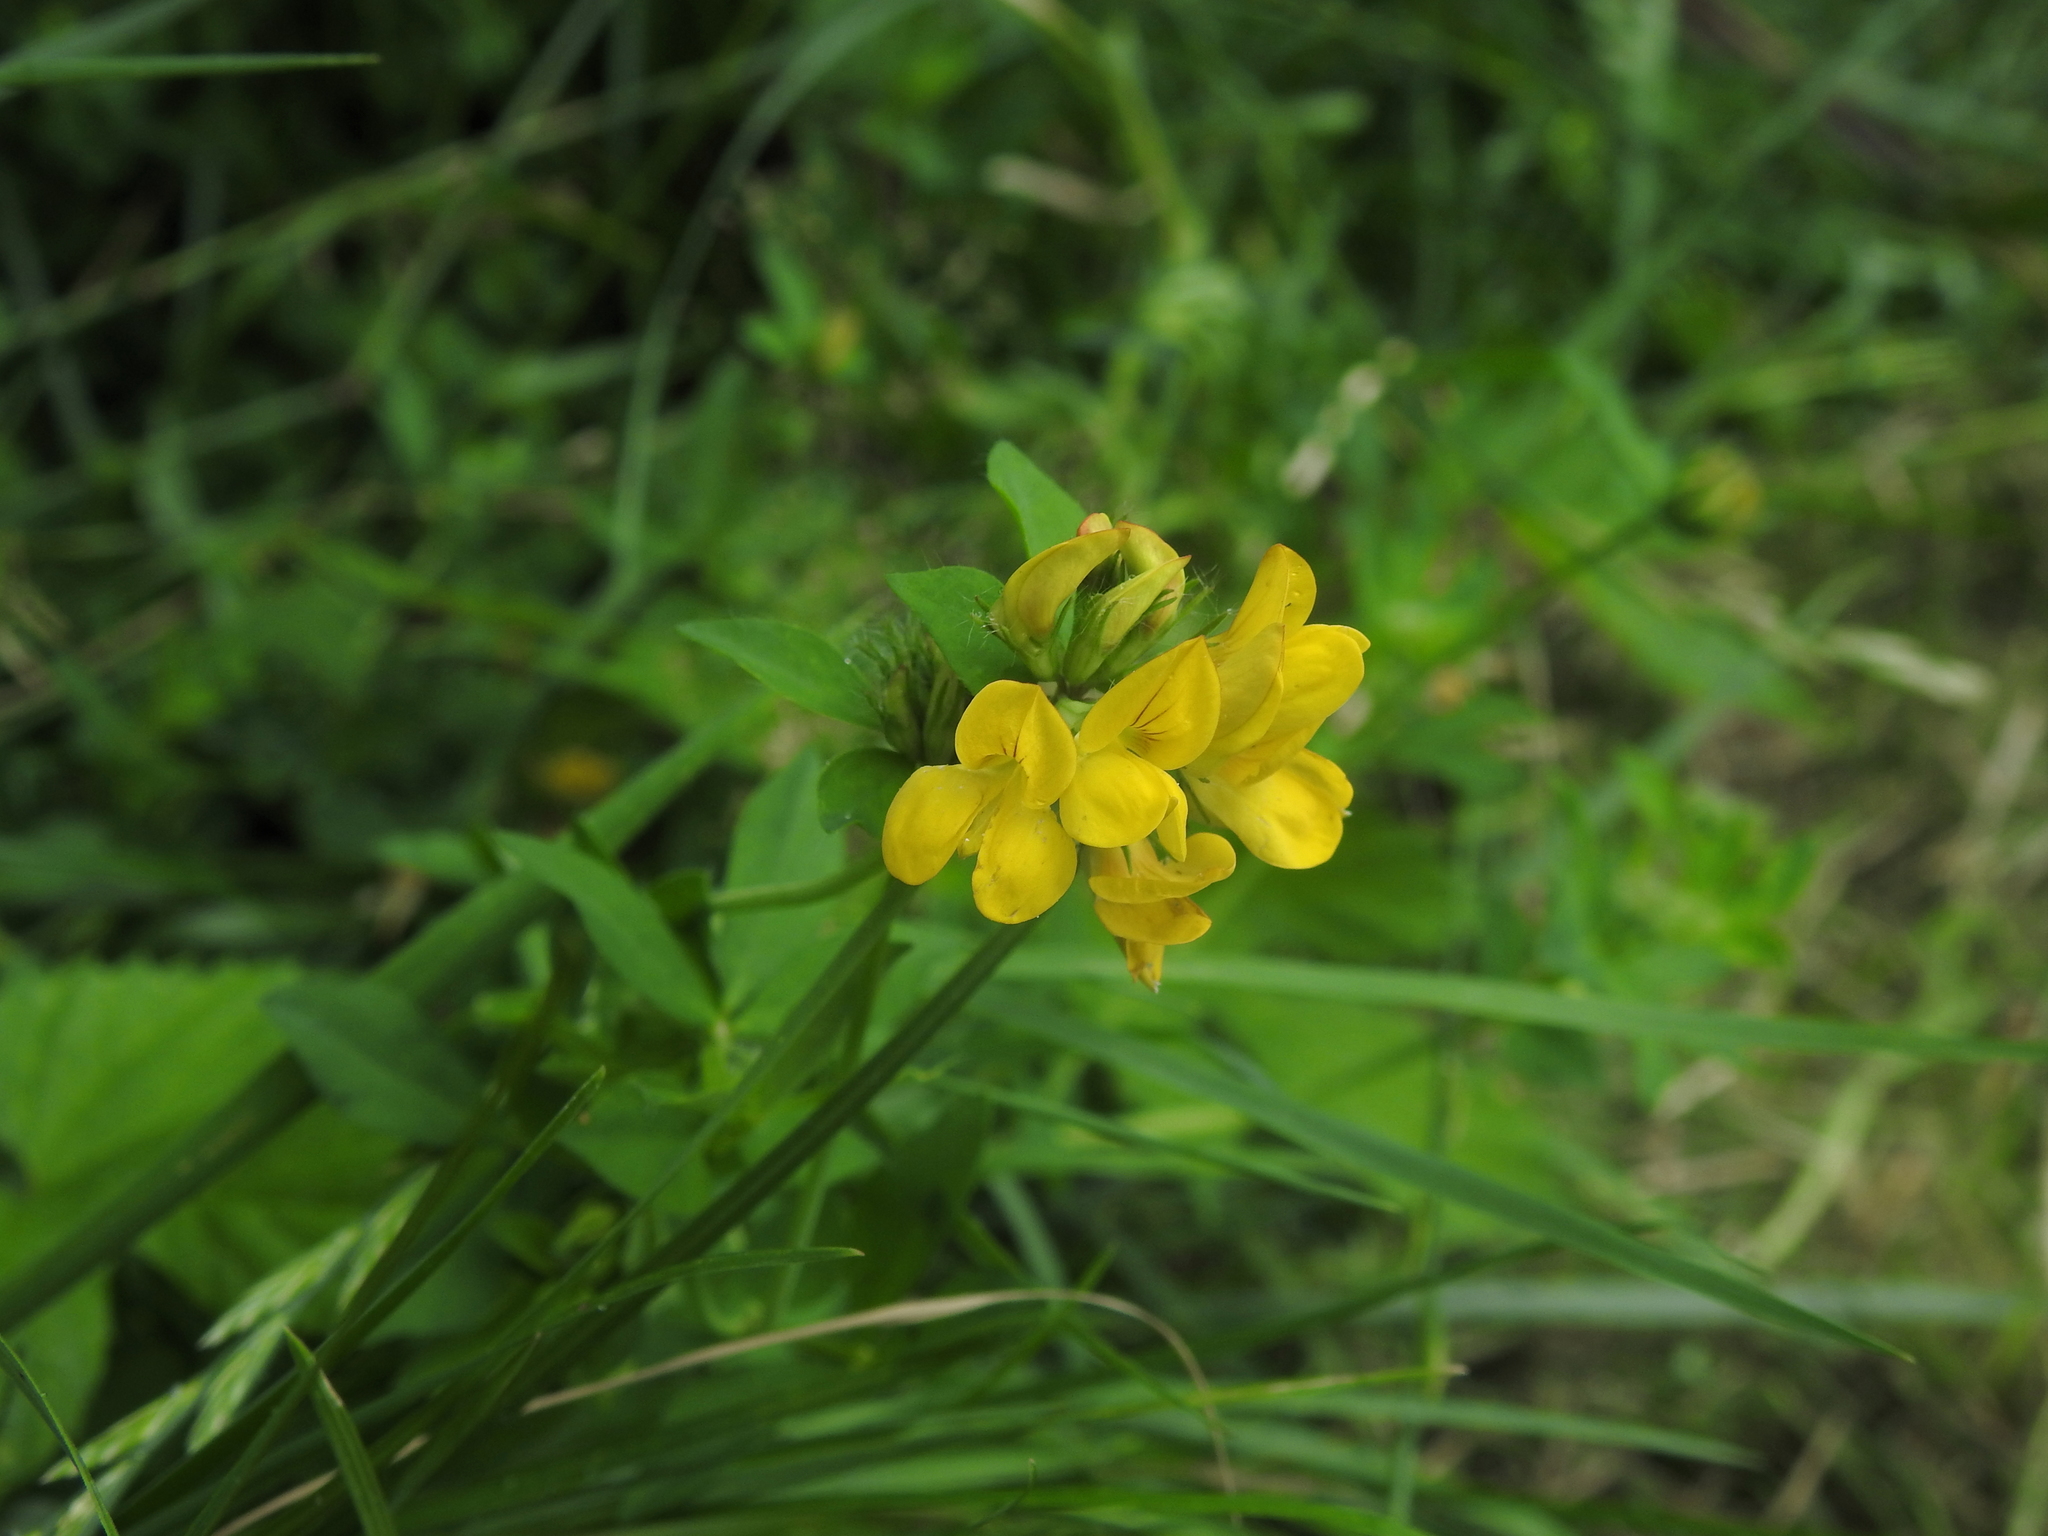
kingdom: Plantae
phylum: Tracheophyta
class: Magnoliopsida
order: Fabales
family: Fabaceae
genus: Lotus
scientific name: Lotus pedunculatus
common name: Greater birdsfoot-trefoil
